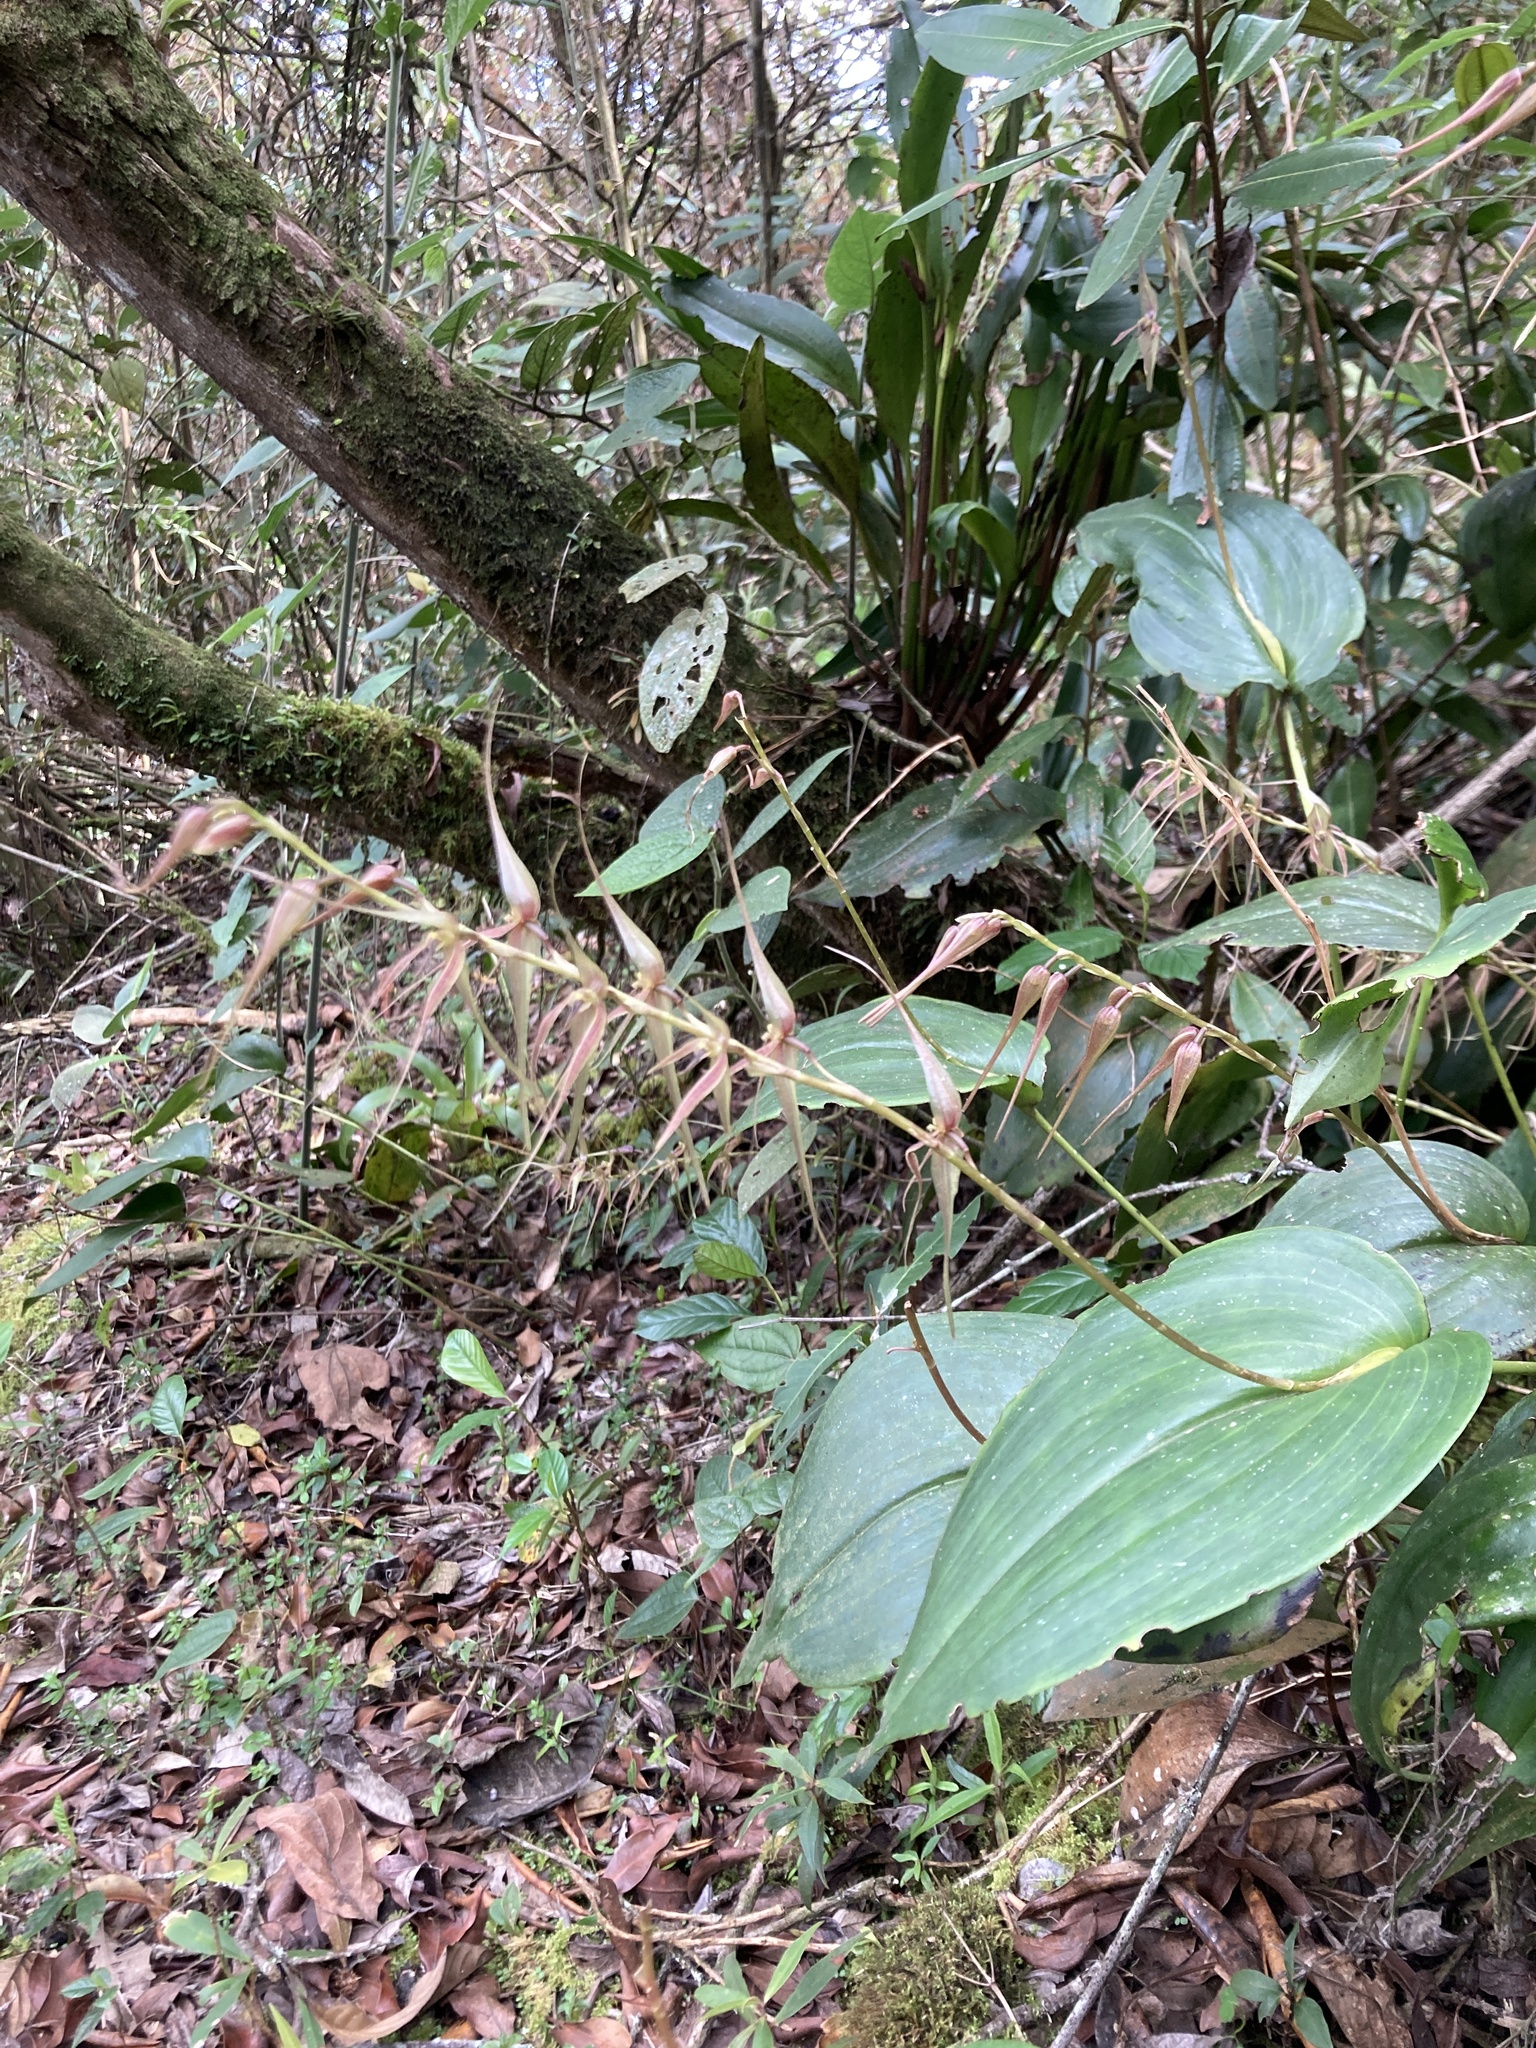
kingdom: Plantae
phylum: Tracheophyta
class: Liliopsida
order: Asparagales
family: Orchidaceae
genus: Pleurothallis
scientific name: Pleurothallis phalangifera
